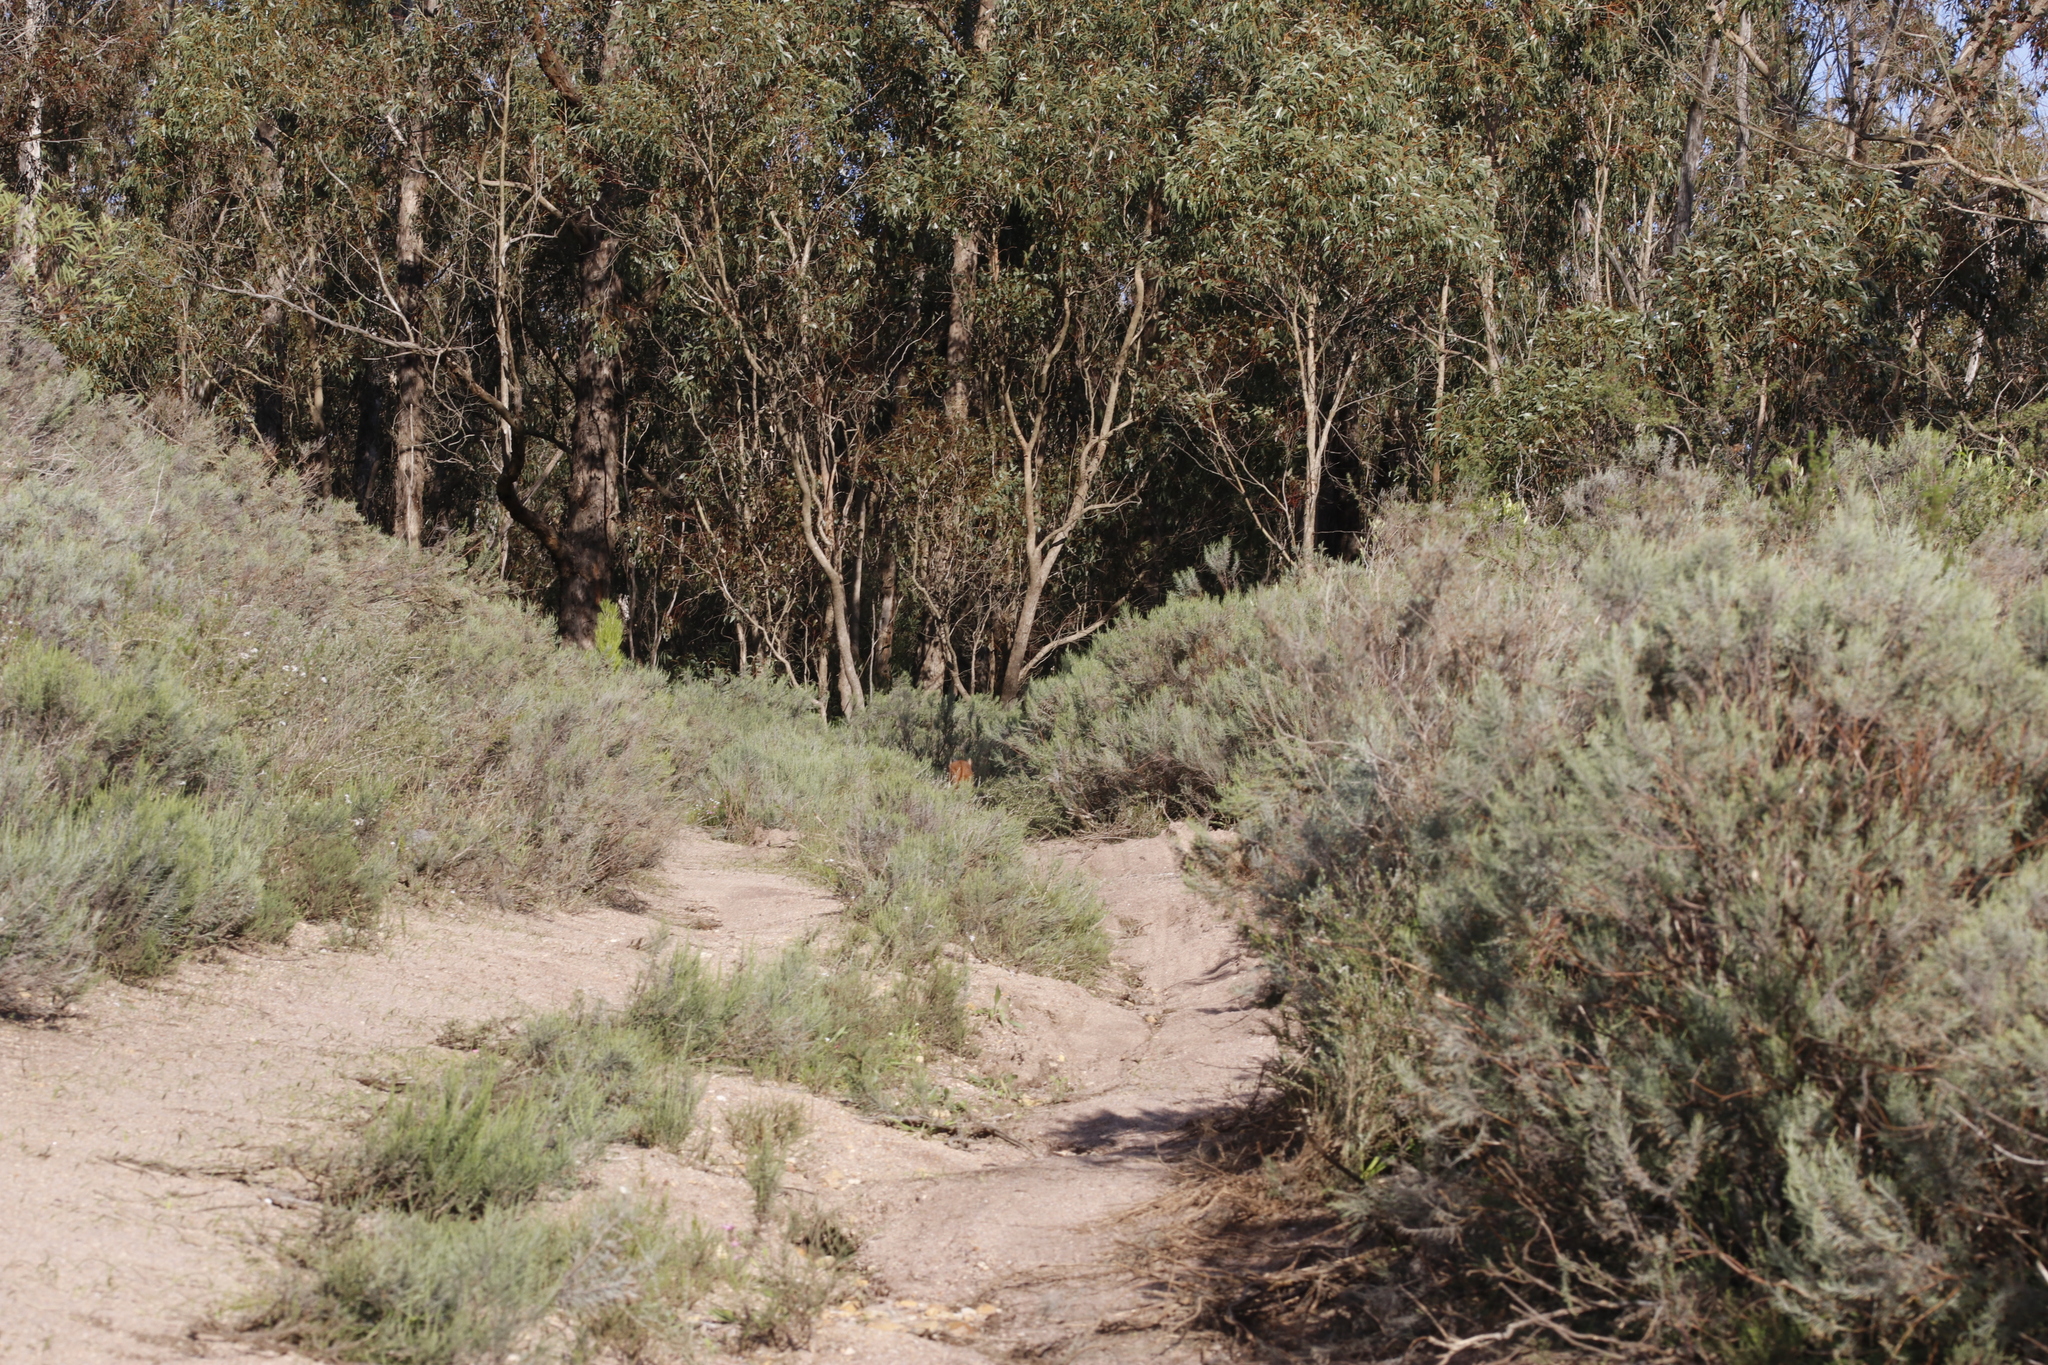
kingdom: Animalia
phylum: Chordata
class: Mammalia
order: Carnivora
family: Felidae
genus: Caracal
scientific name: Caracal caracal
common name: Caracal
